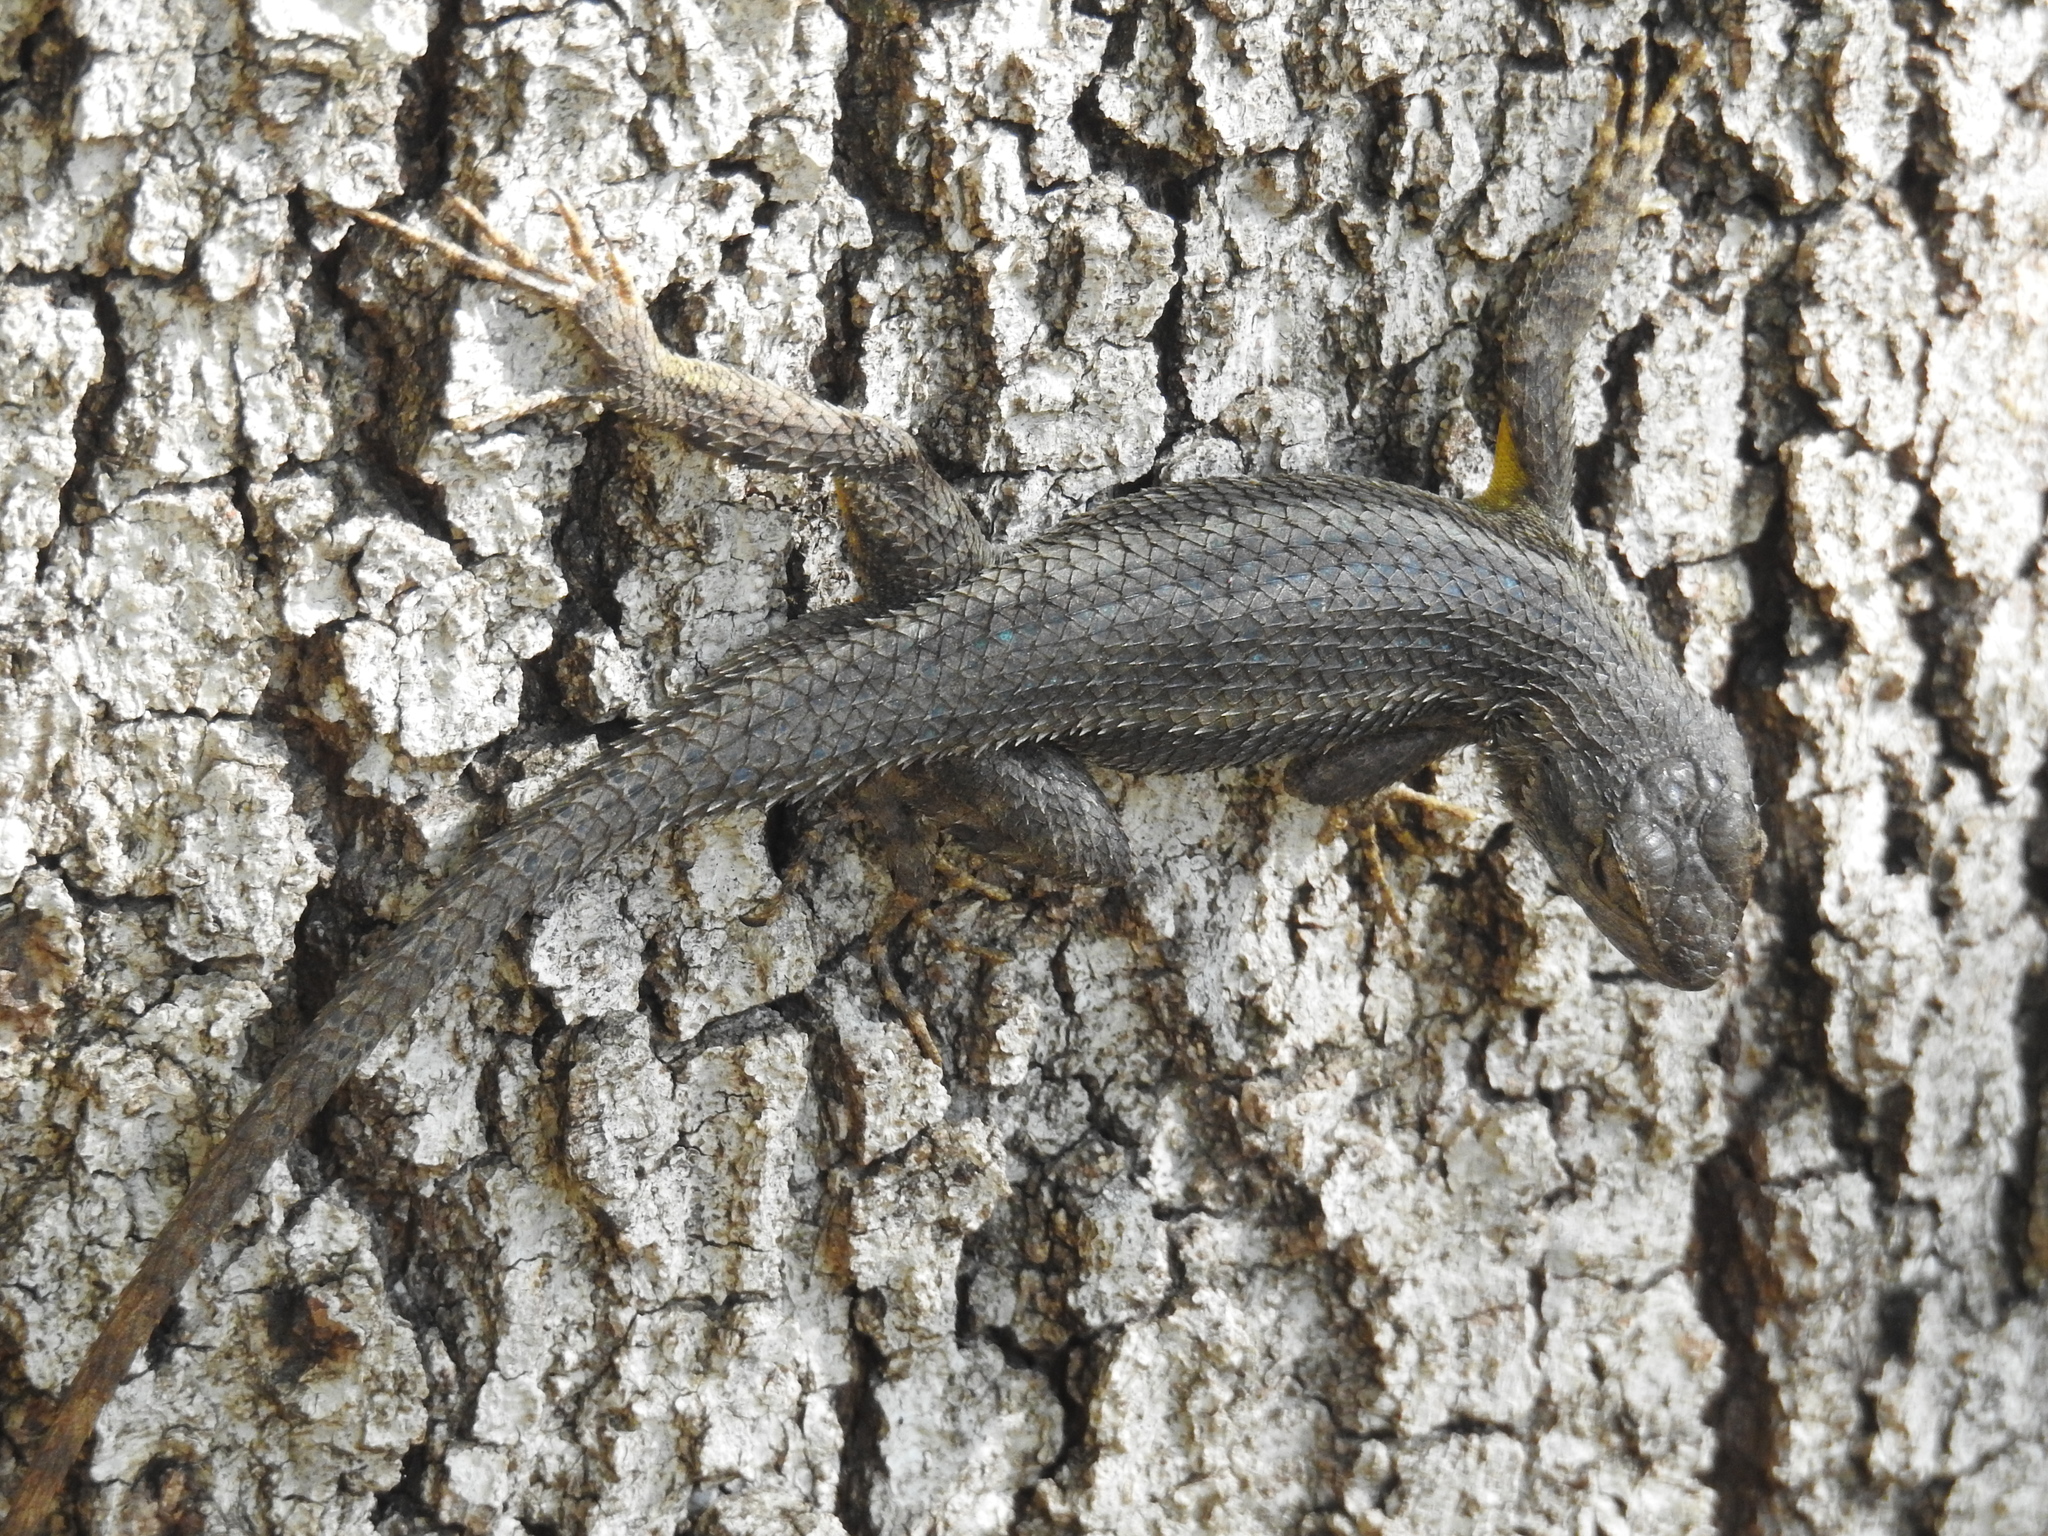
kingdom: Animalia
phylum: Chordata
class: Squamata
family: Phrynosomatidae
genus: Sceloporus
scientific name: Sceloporus occidentalis
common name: Western fence lizard
